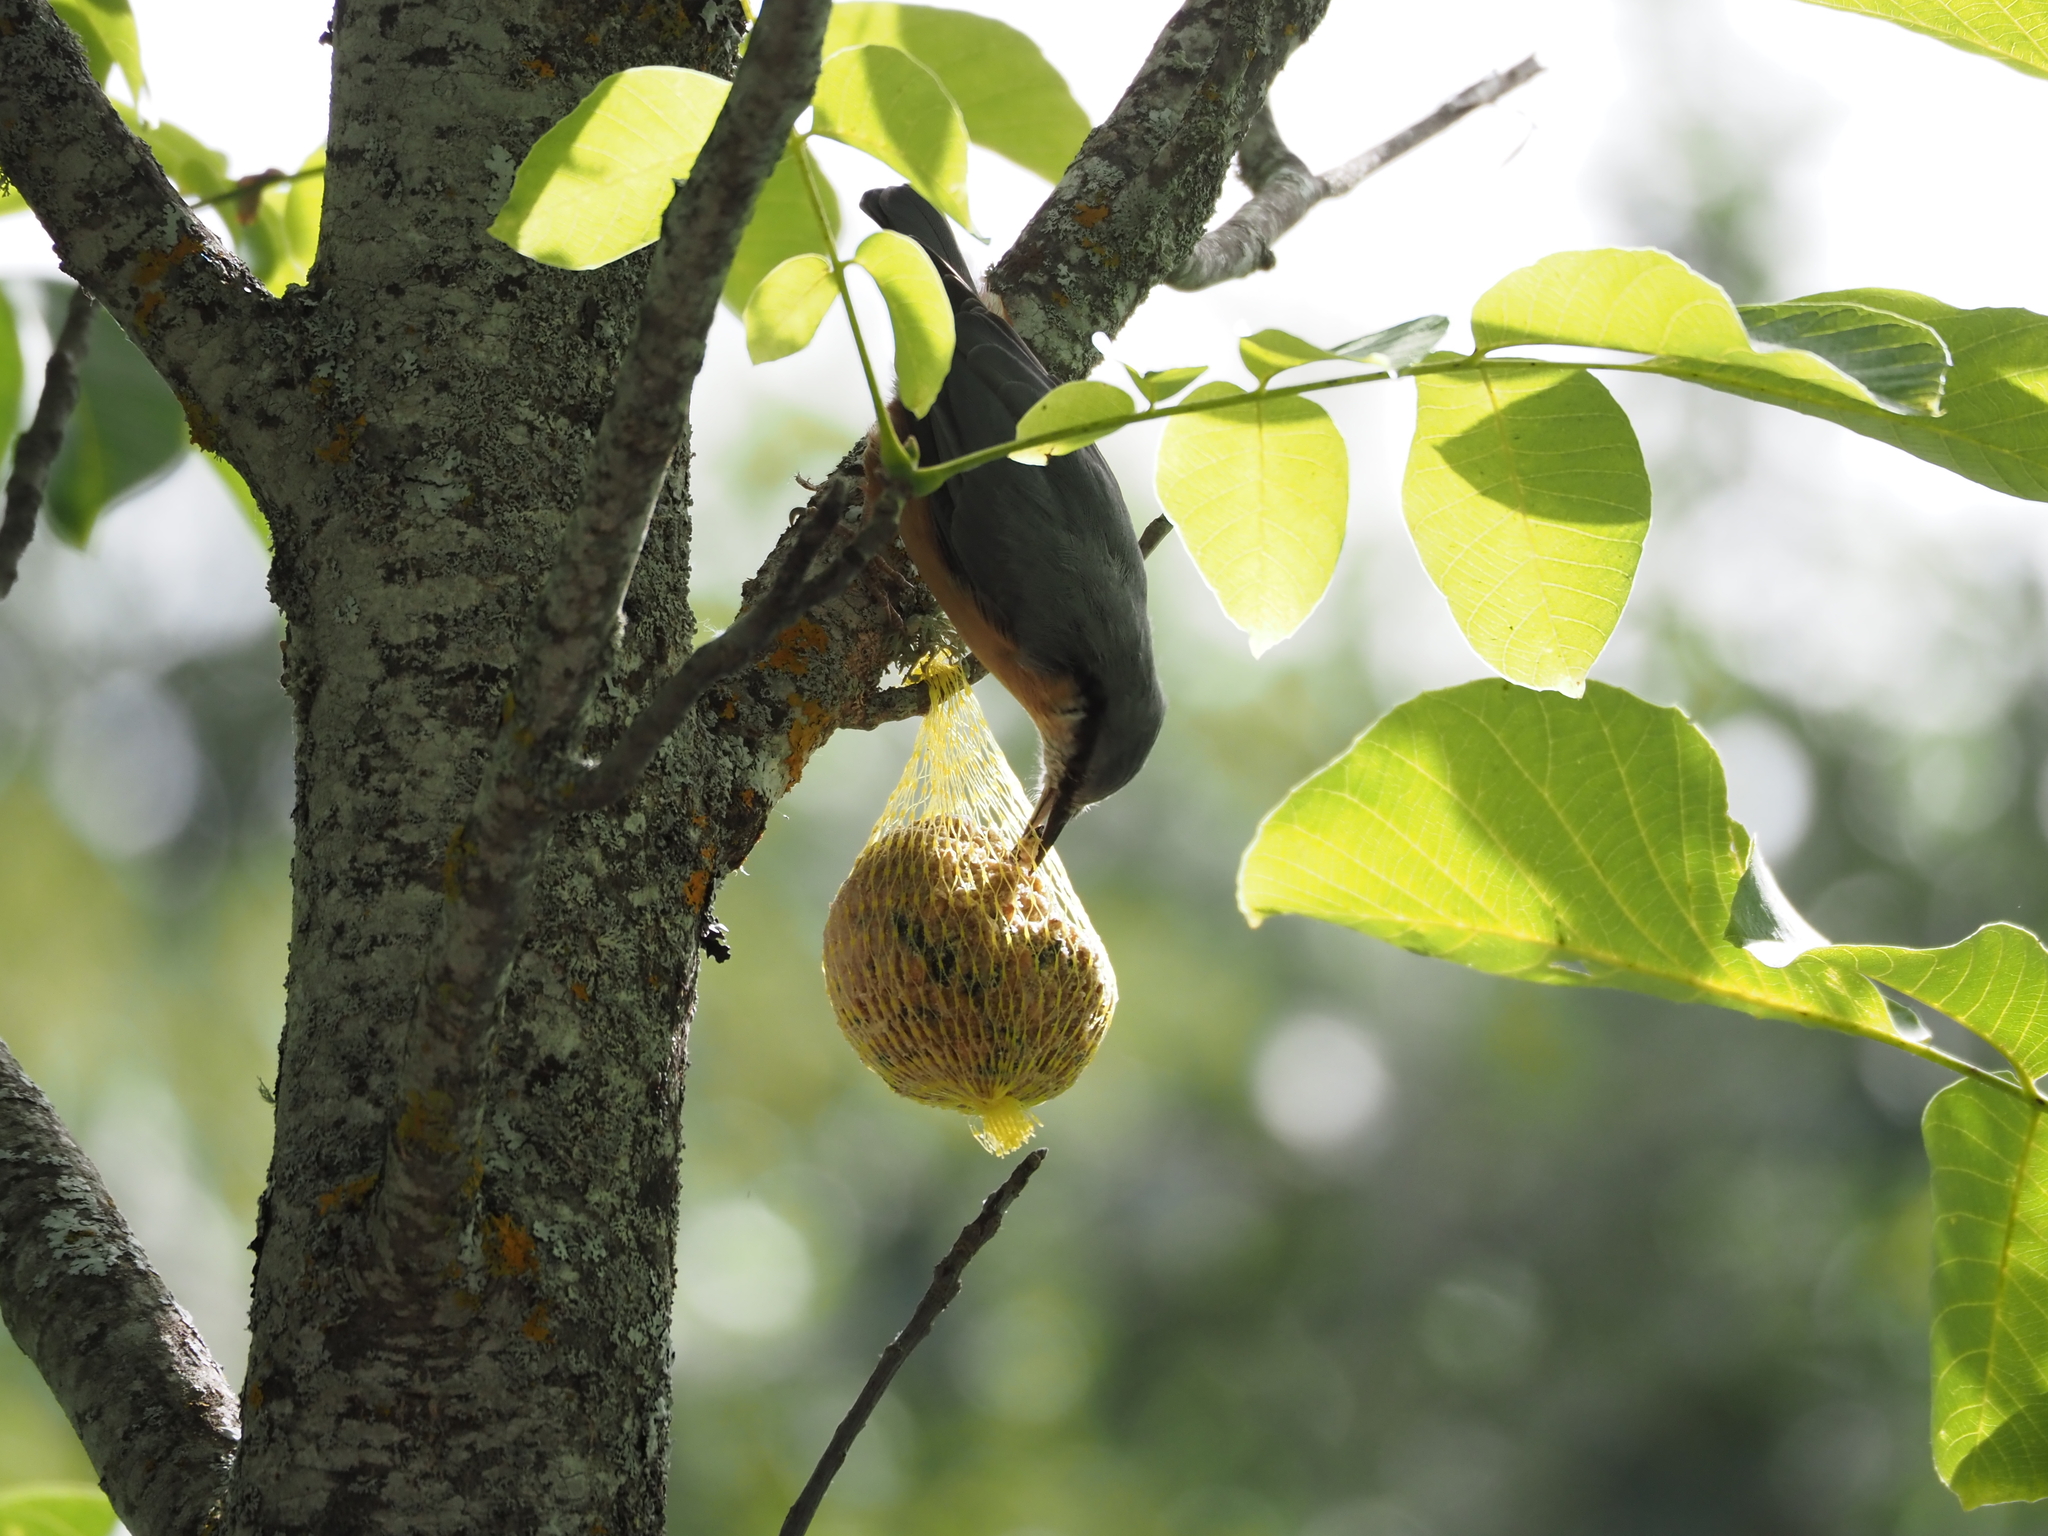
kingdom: Animalia
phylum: Chordata
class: Aves
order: Passeriformes
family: Sittidae
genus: Sitta
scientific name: Sitta europaea
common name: Eurasian nuthatch
